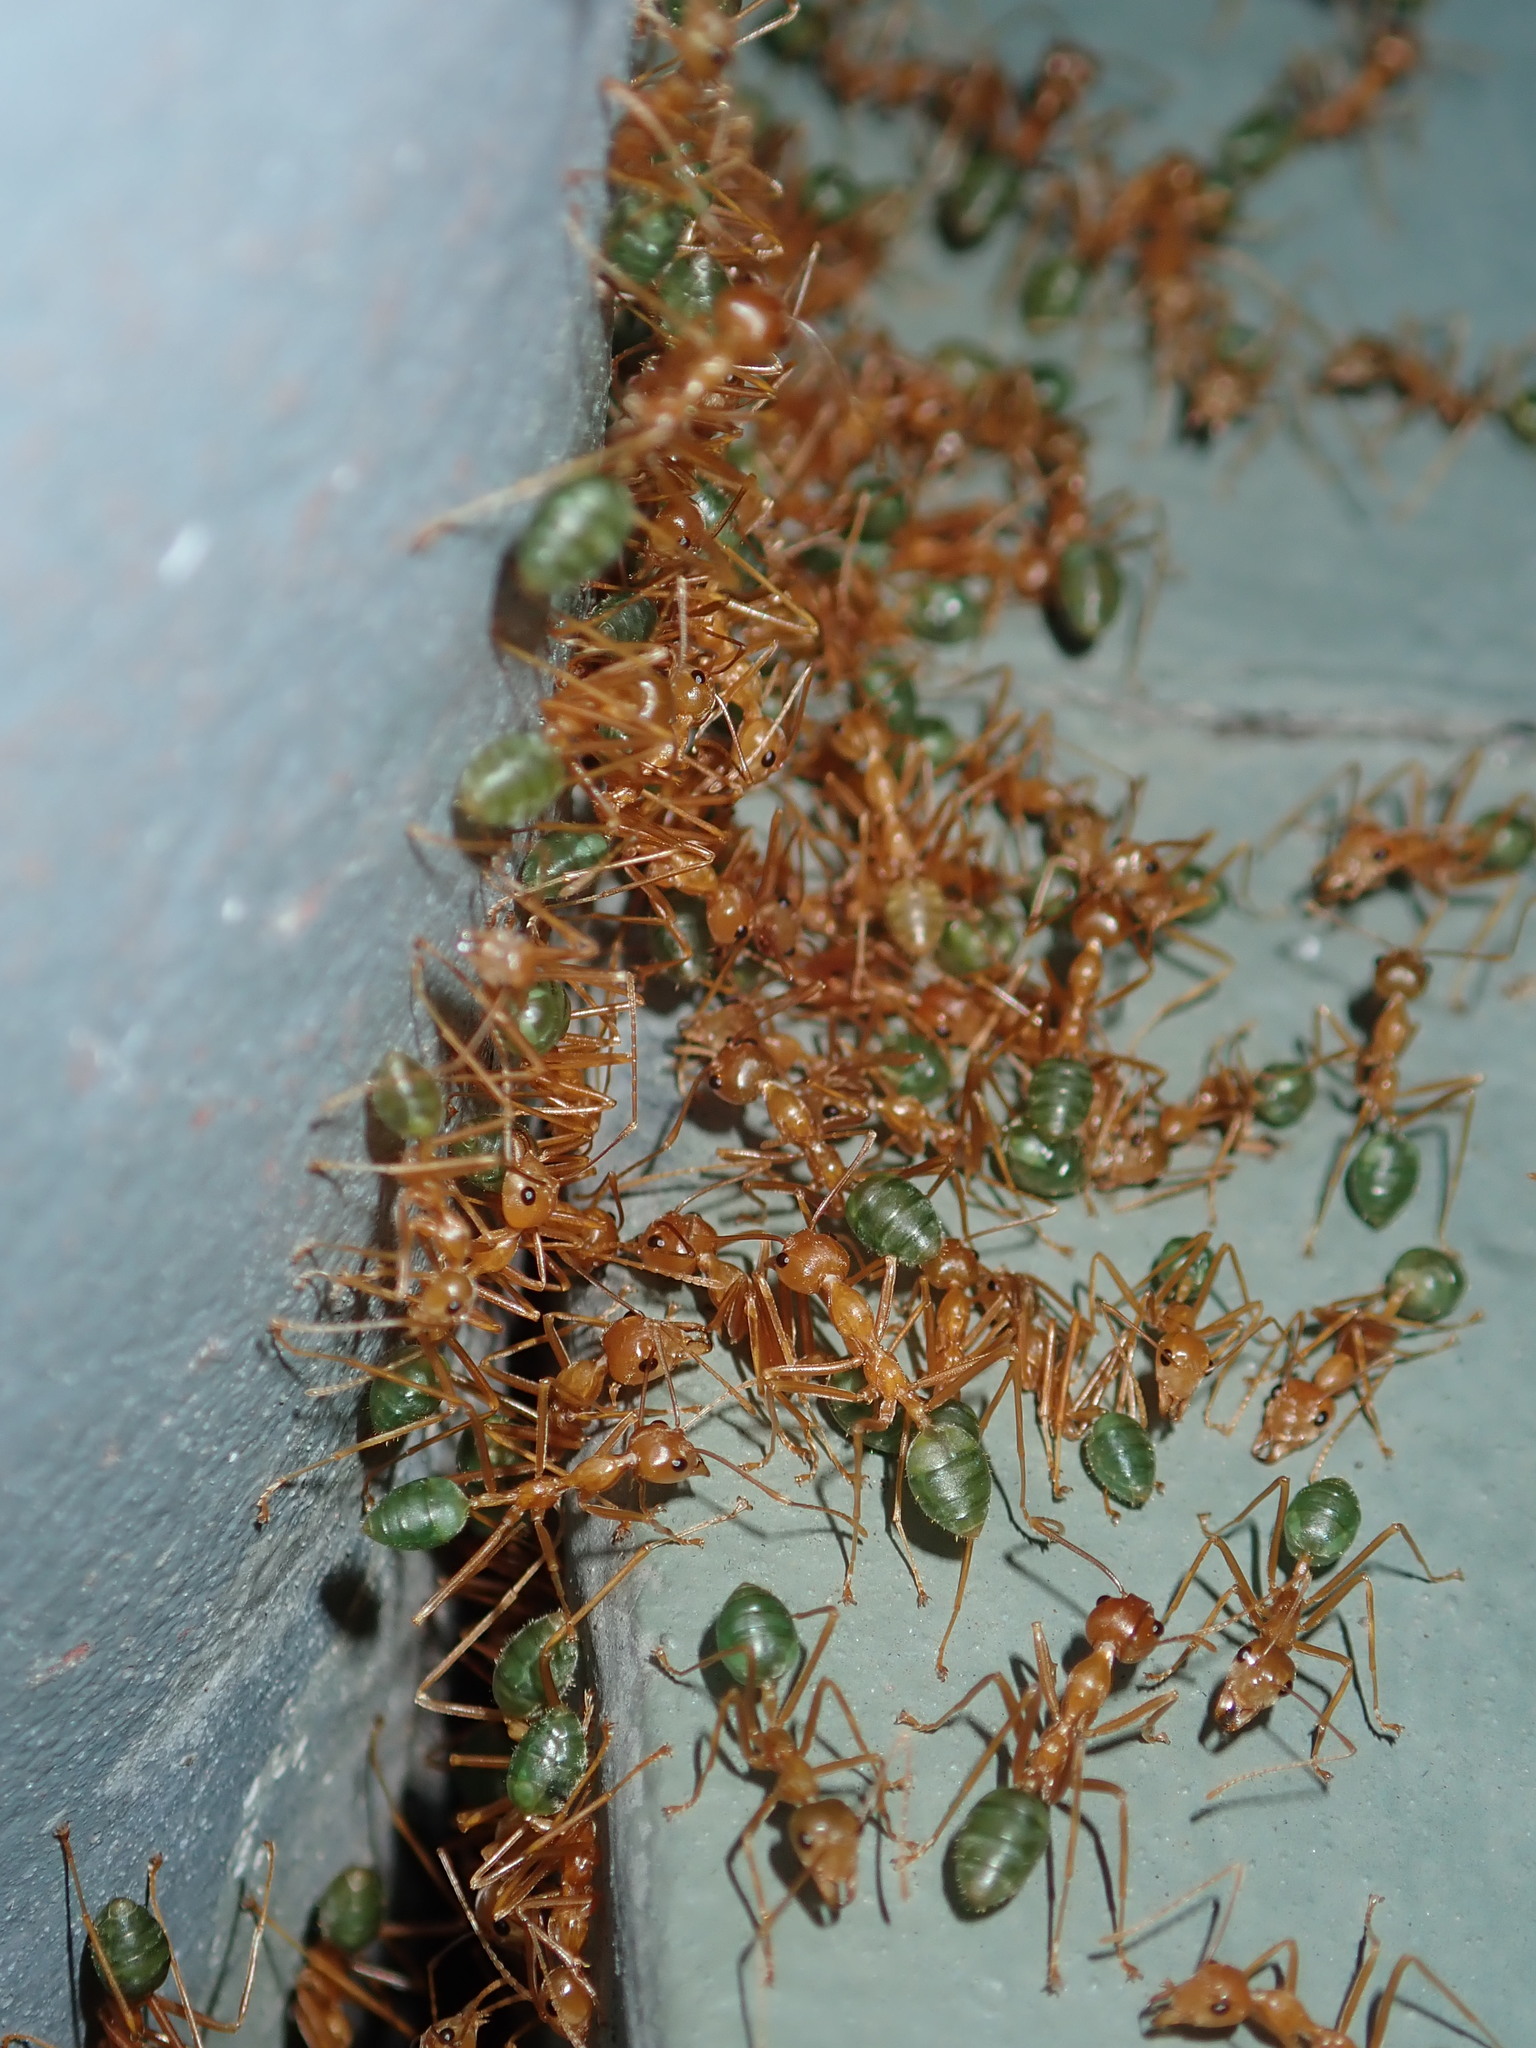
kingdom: Animalia
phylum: Arthropoda
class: Insecta
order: Hymenoptera
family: Formicidae
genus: Oecophylla
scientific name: Oecophylla smaragdina
